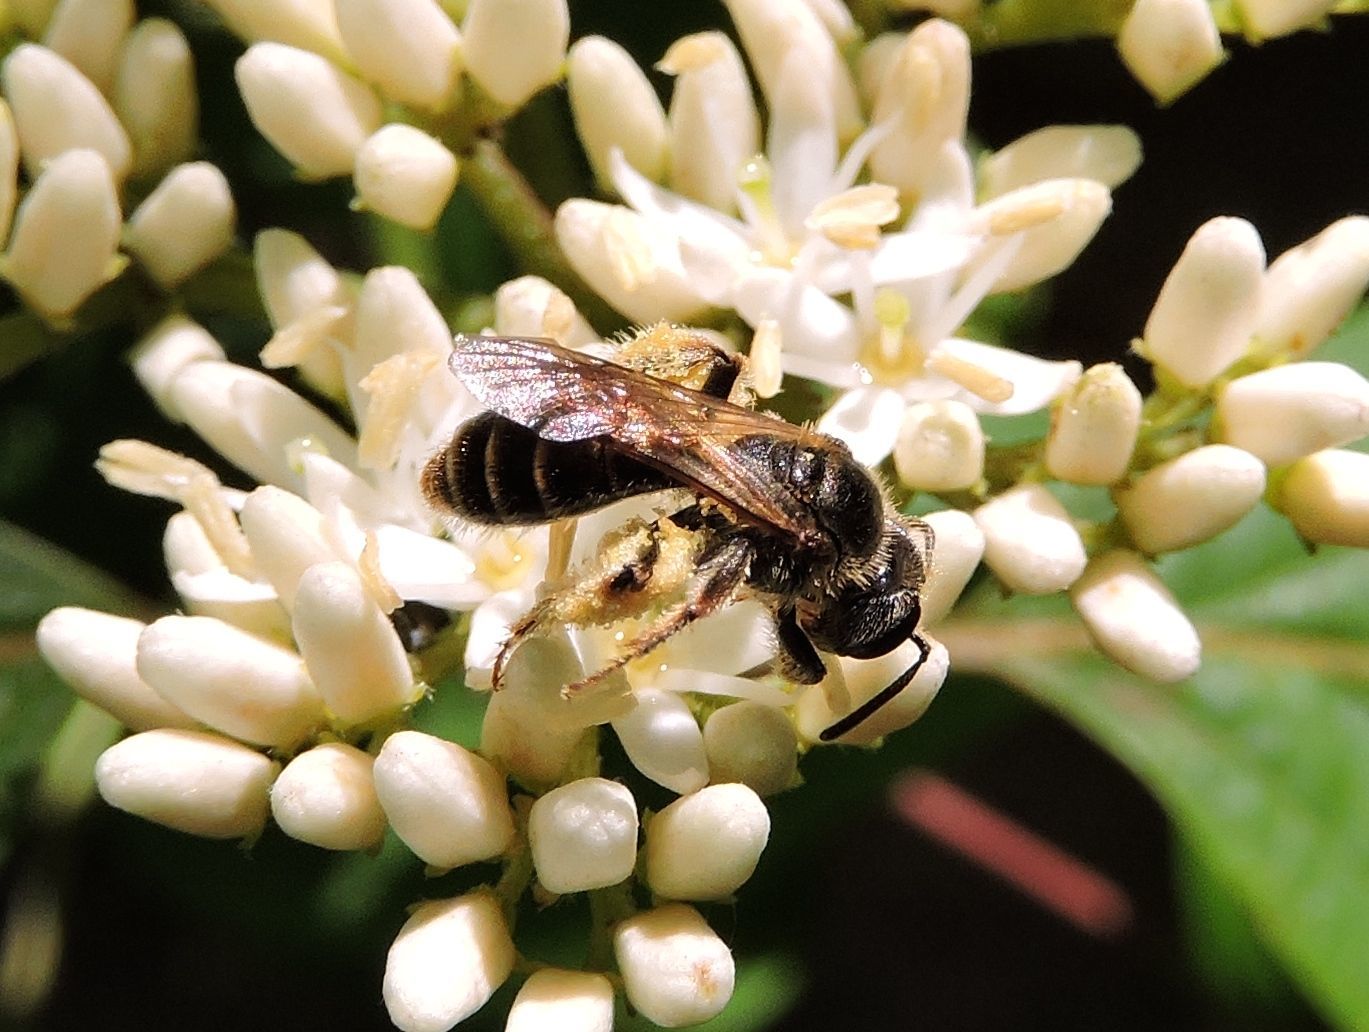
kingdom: Animalia
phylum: Arthropoda
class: Insecta
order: Hymenoptera
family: Andrenidae
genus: Andrena
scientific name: Andrena fragilis
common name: Fragile dogwood mining bee
